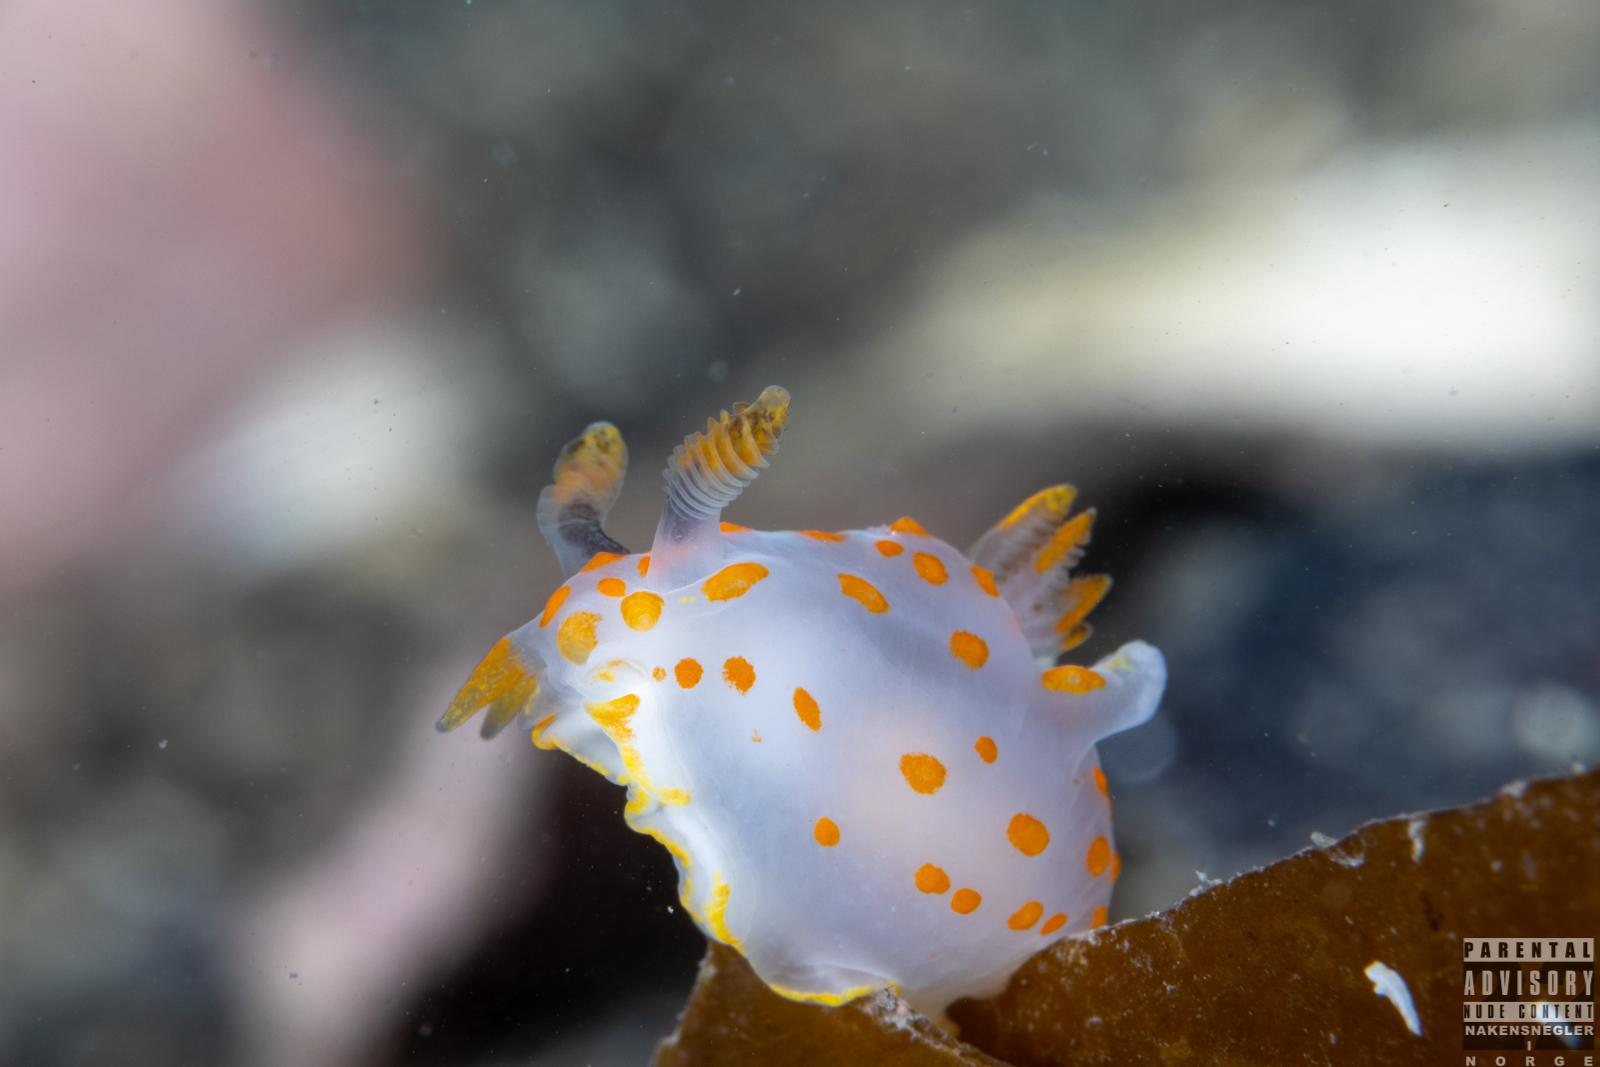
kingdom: Animalia
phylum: Mollusca
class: Gastropoda
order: Nudibranchia
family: Polyceridae
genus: Polycera
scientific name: Polycera quadrilineata
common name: Four-striped polycera
